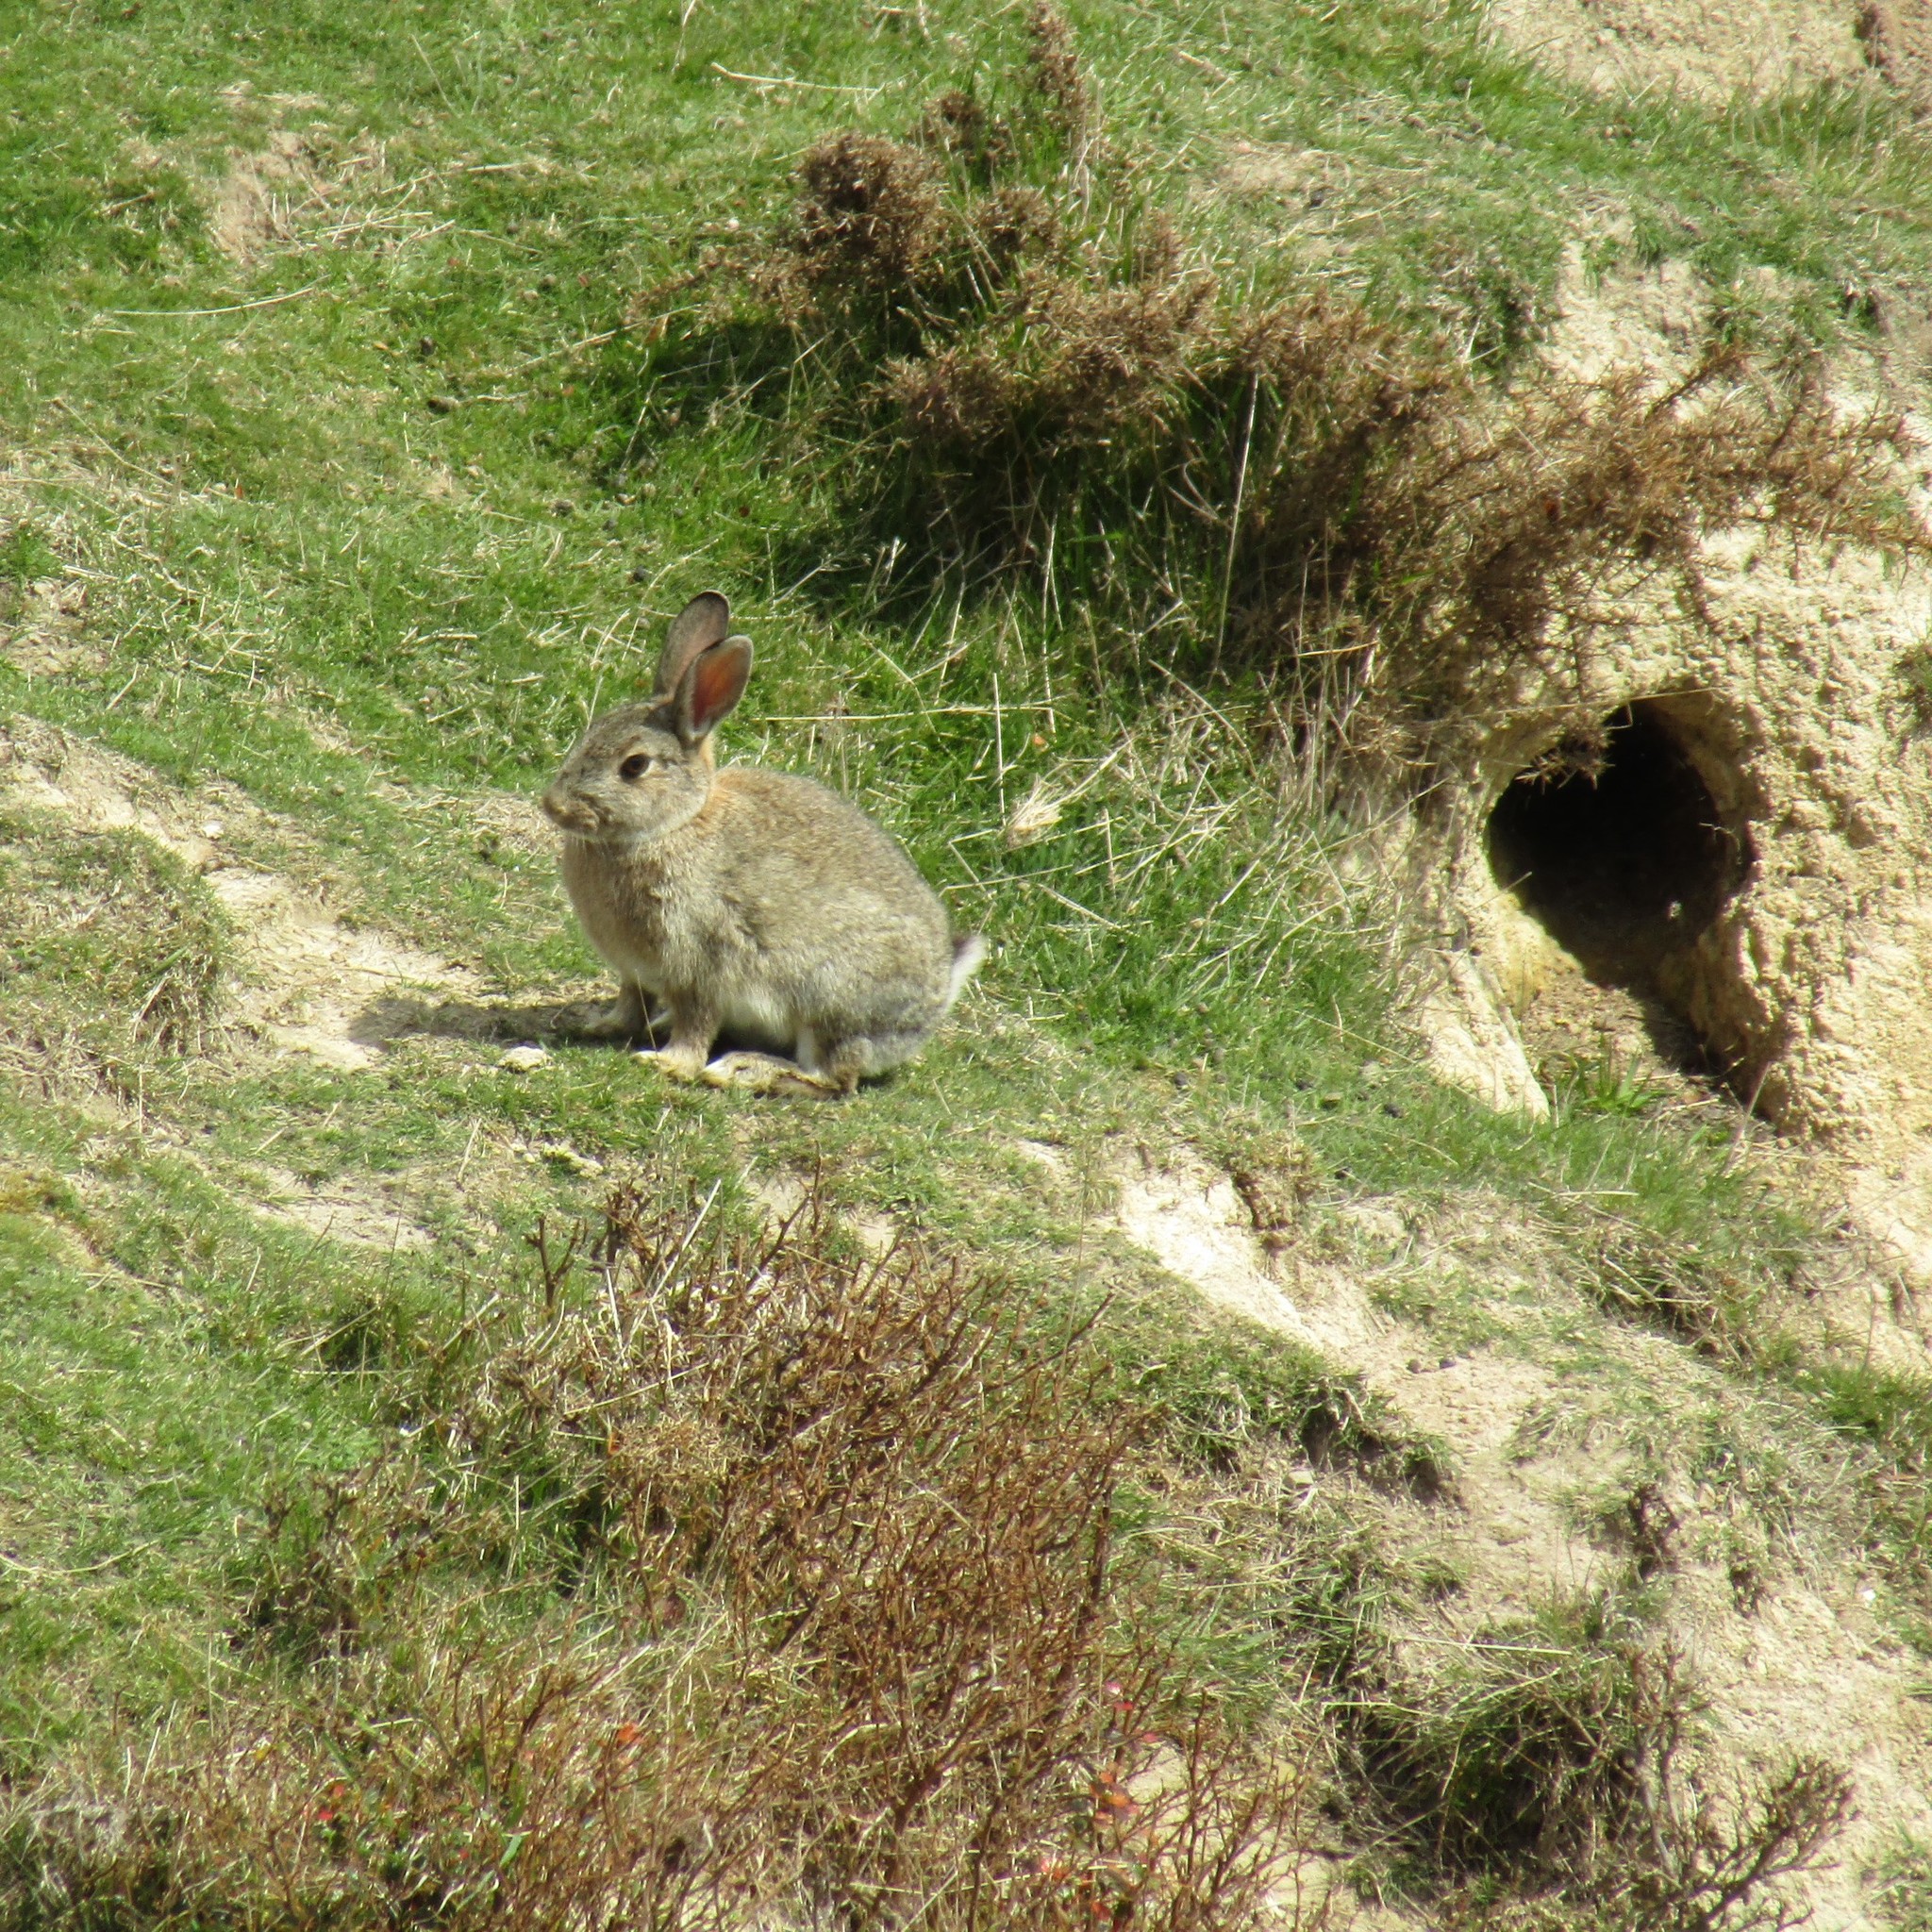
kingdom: Animalia
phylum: Chordata
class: Mammalia
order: Lagomorpha
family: Leporidae
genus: Oryctolagus
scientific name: Oryctolagus cuniculus
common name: European rabbit
